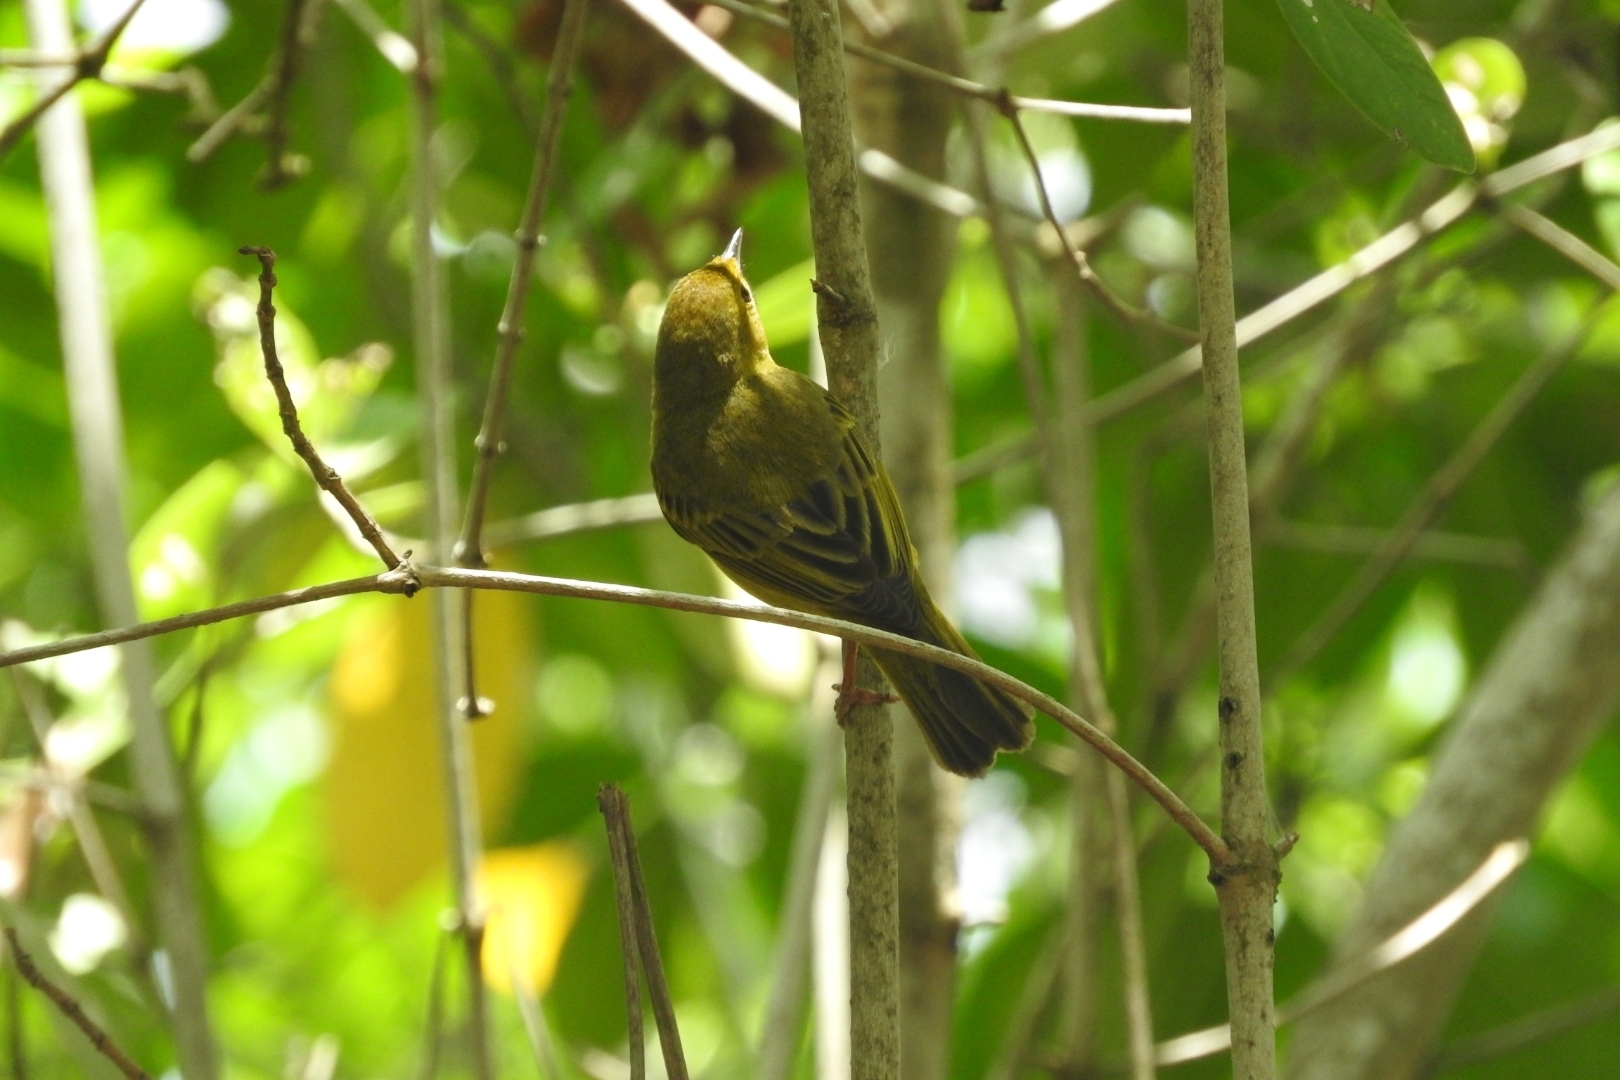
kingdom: Animalia
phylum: Chordata
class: Aves
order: Passeriformes
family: Parulidae
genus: Setophaga
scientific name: Setophaga petechia
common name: Yellow warbler
